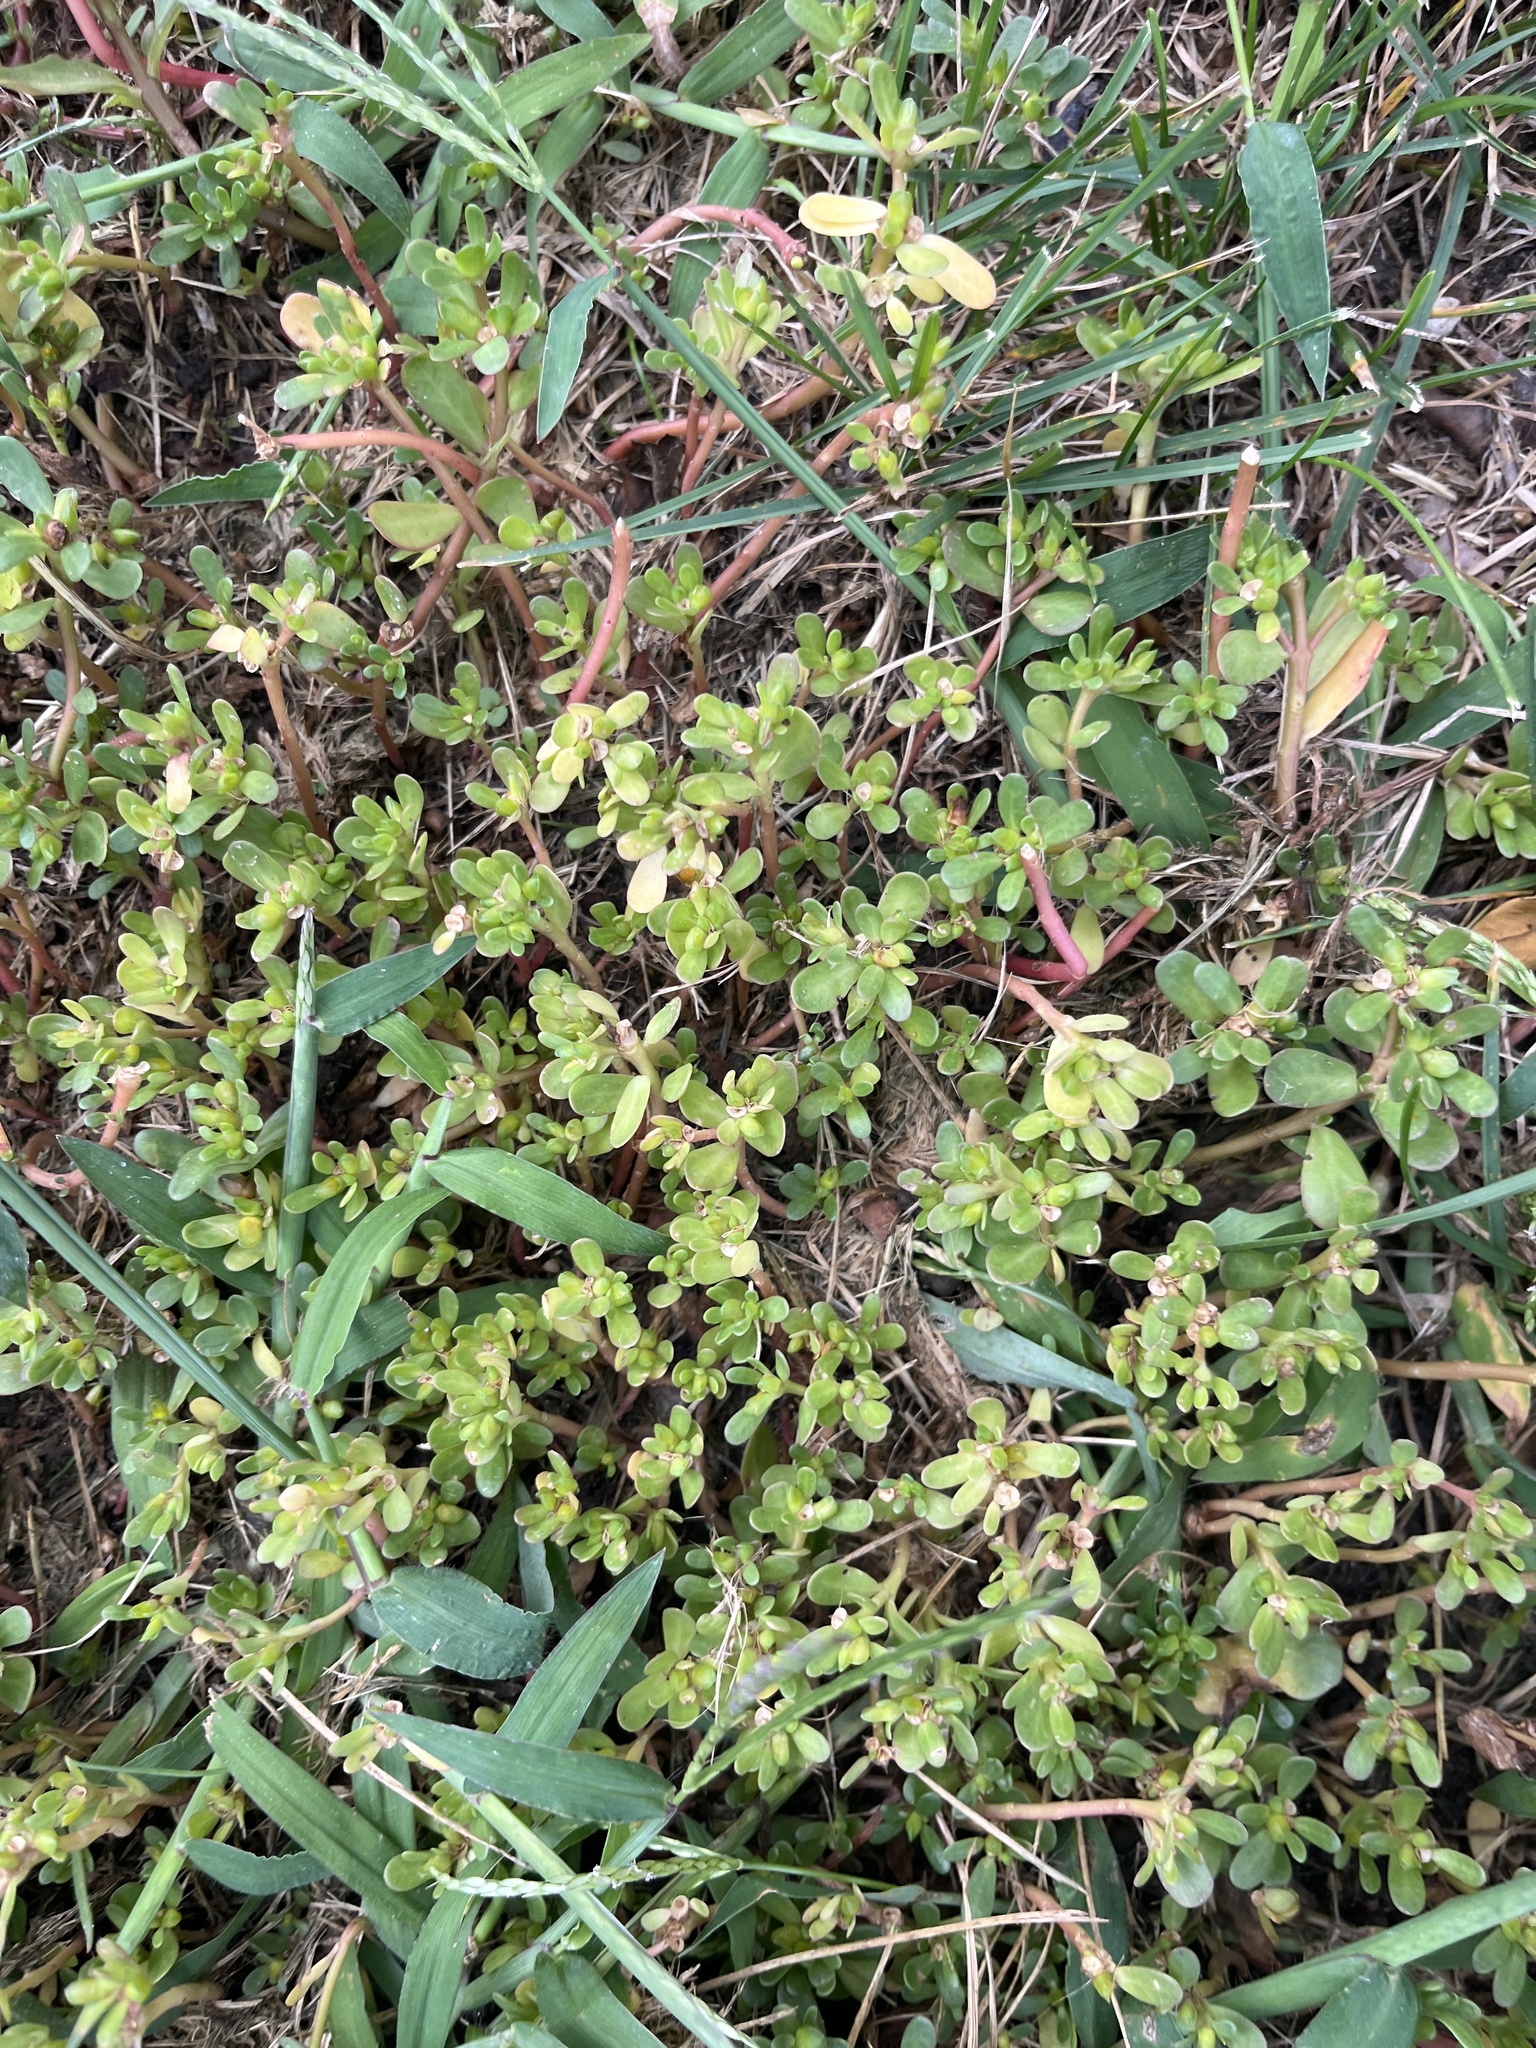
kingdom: Plantae
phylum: Tracheophyta
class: Magnoliopsida
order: Caryophyllales
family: Portulacaceae
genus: Portulaca
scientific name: Portulaca oleracea
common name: Common purslane
